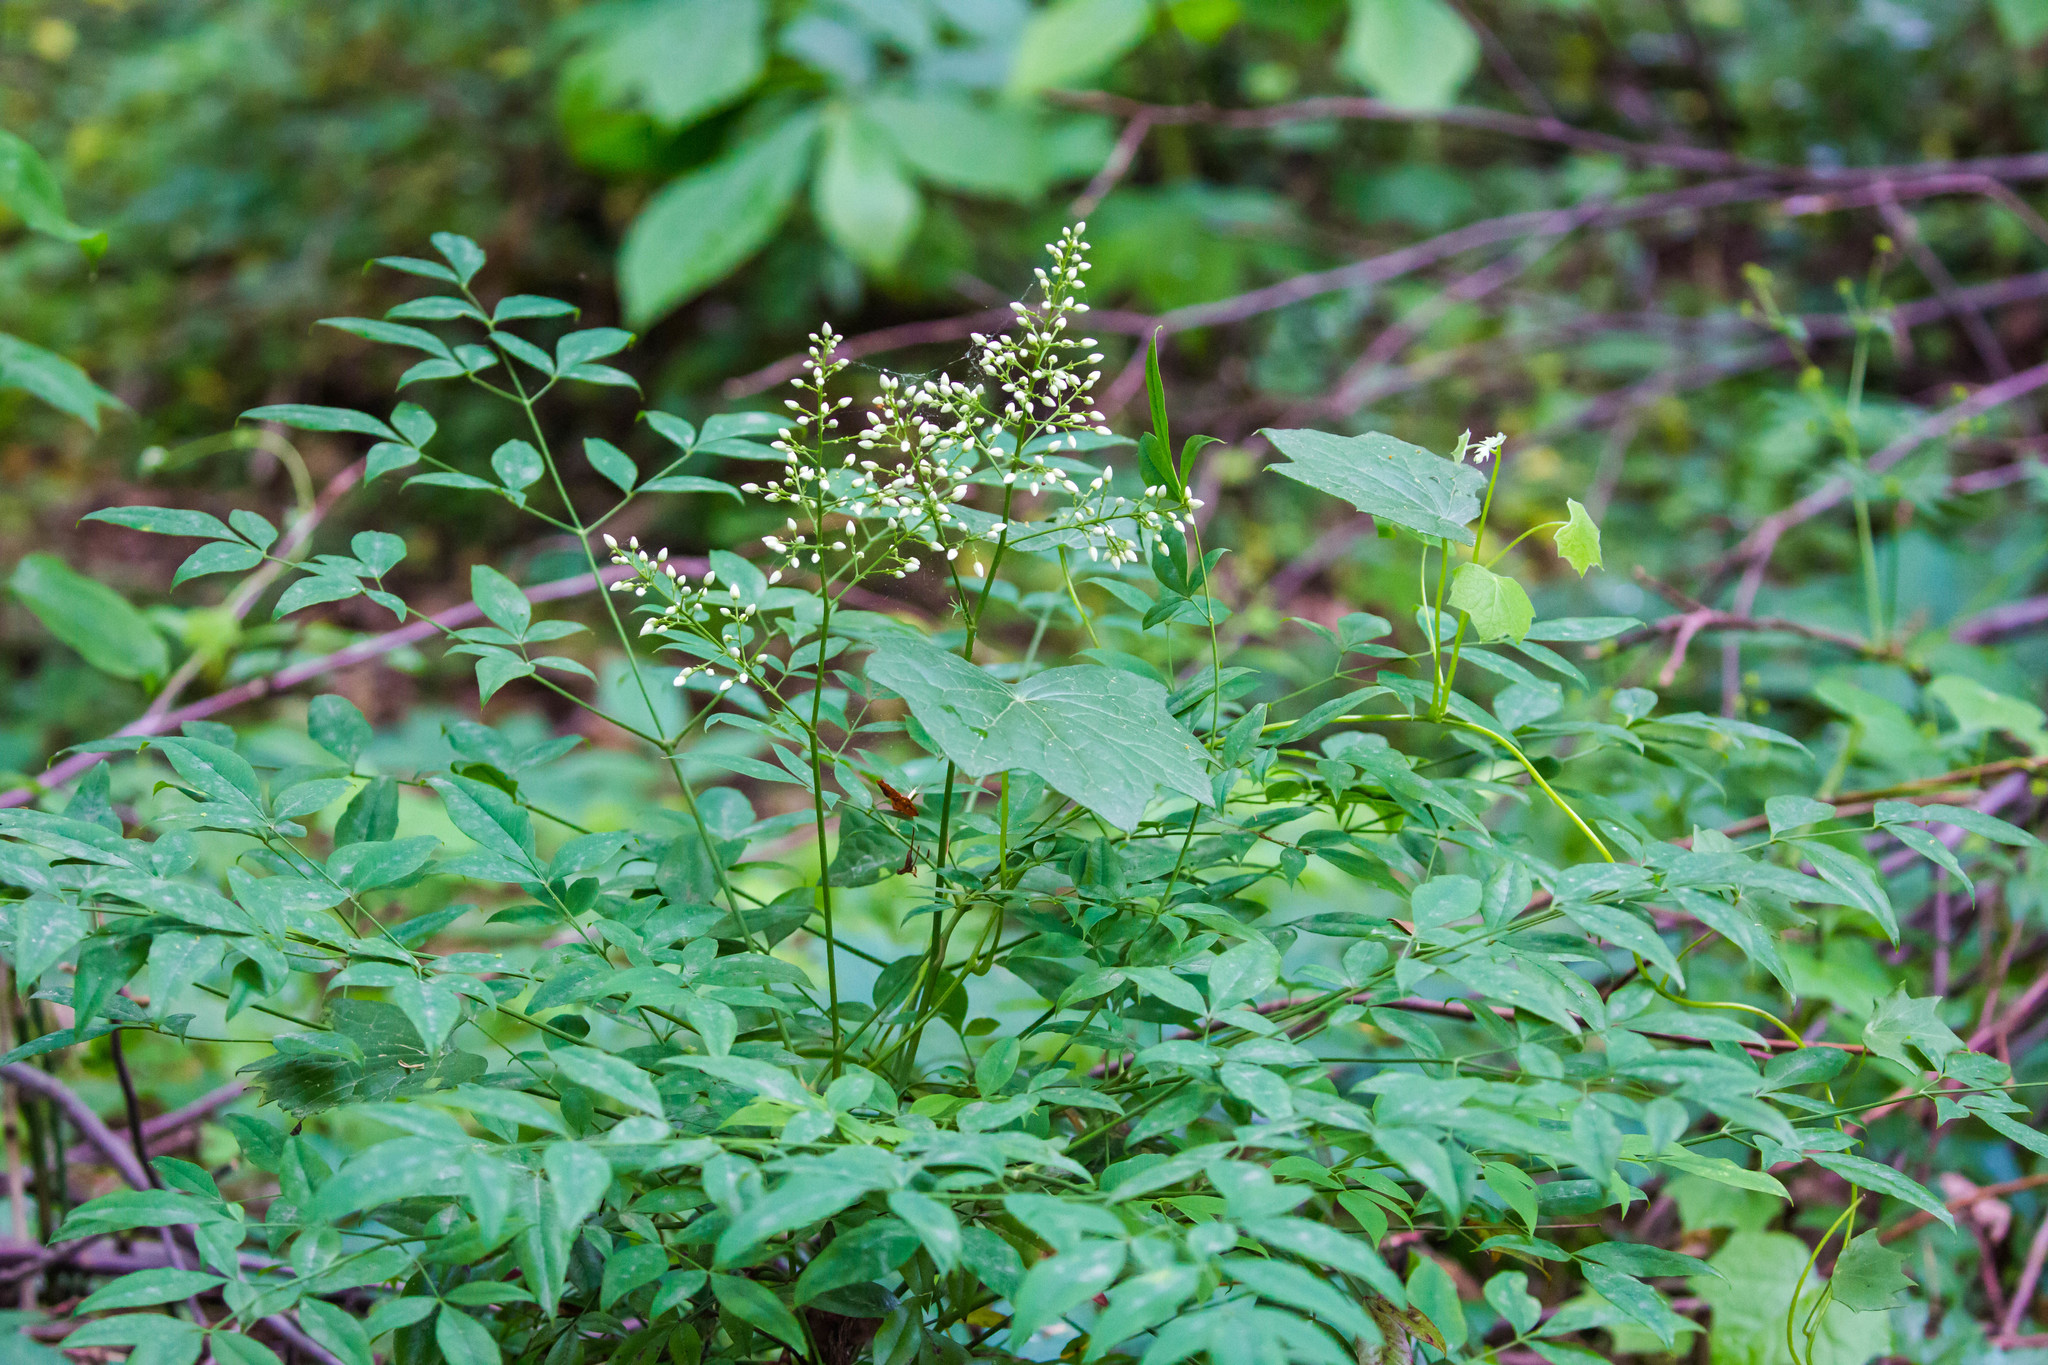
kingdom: Plantae
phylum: Tracheophyta
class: Magnoliopsida
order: Ranunculales
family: Berberidaceae
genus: Nandina
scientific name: Nandina domestica
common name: Sacred bamboo
